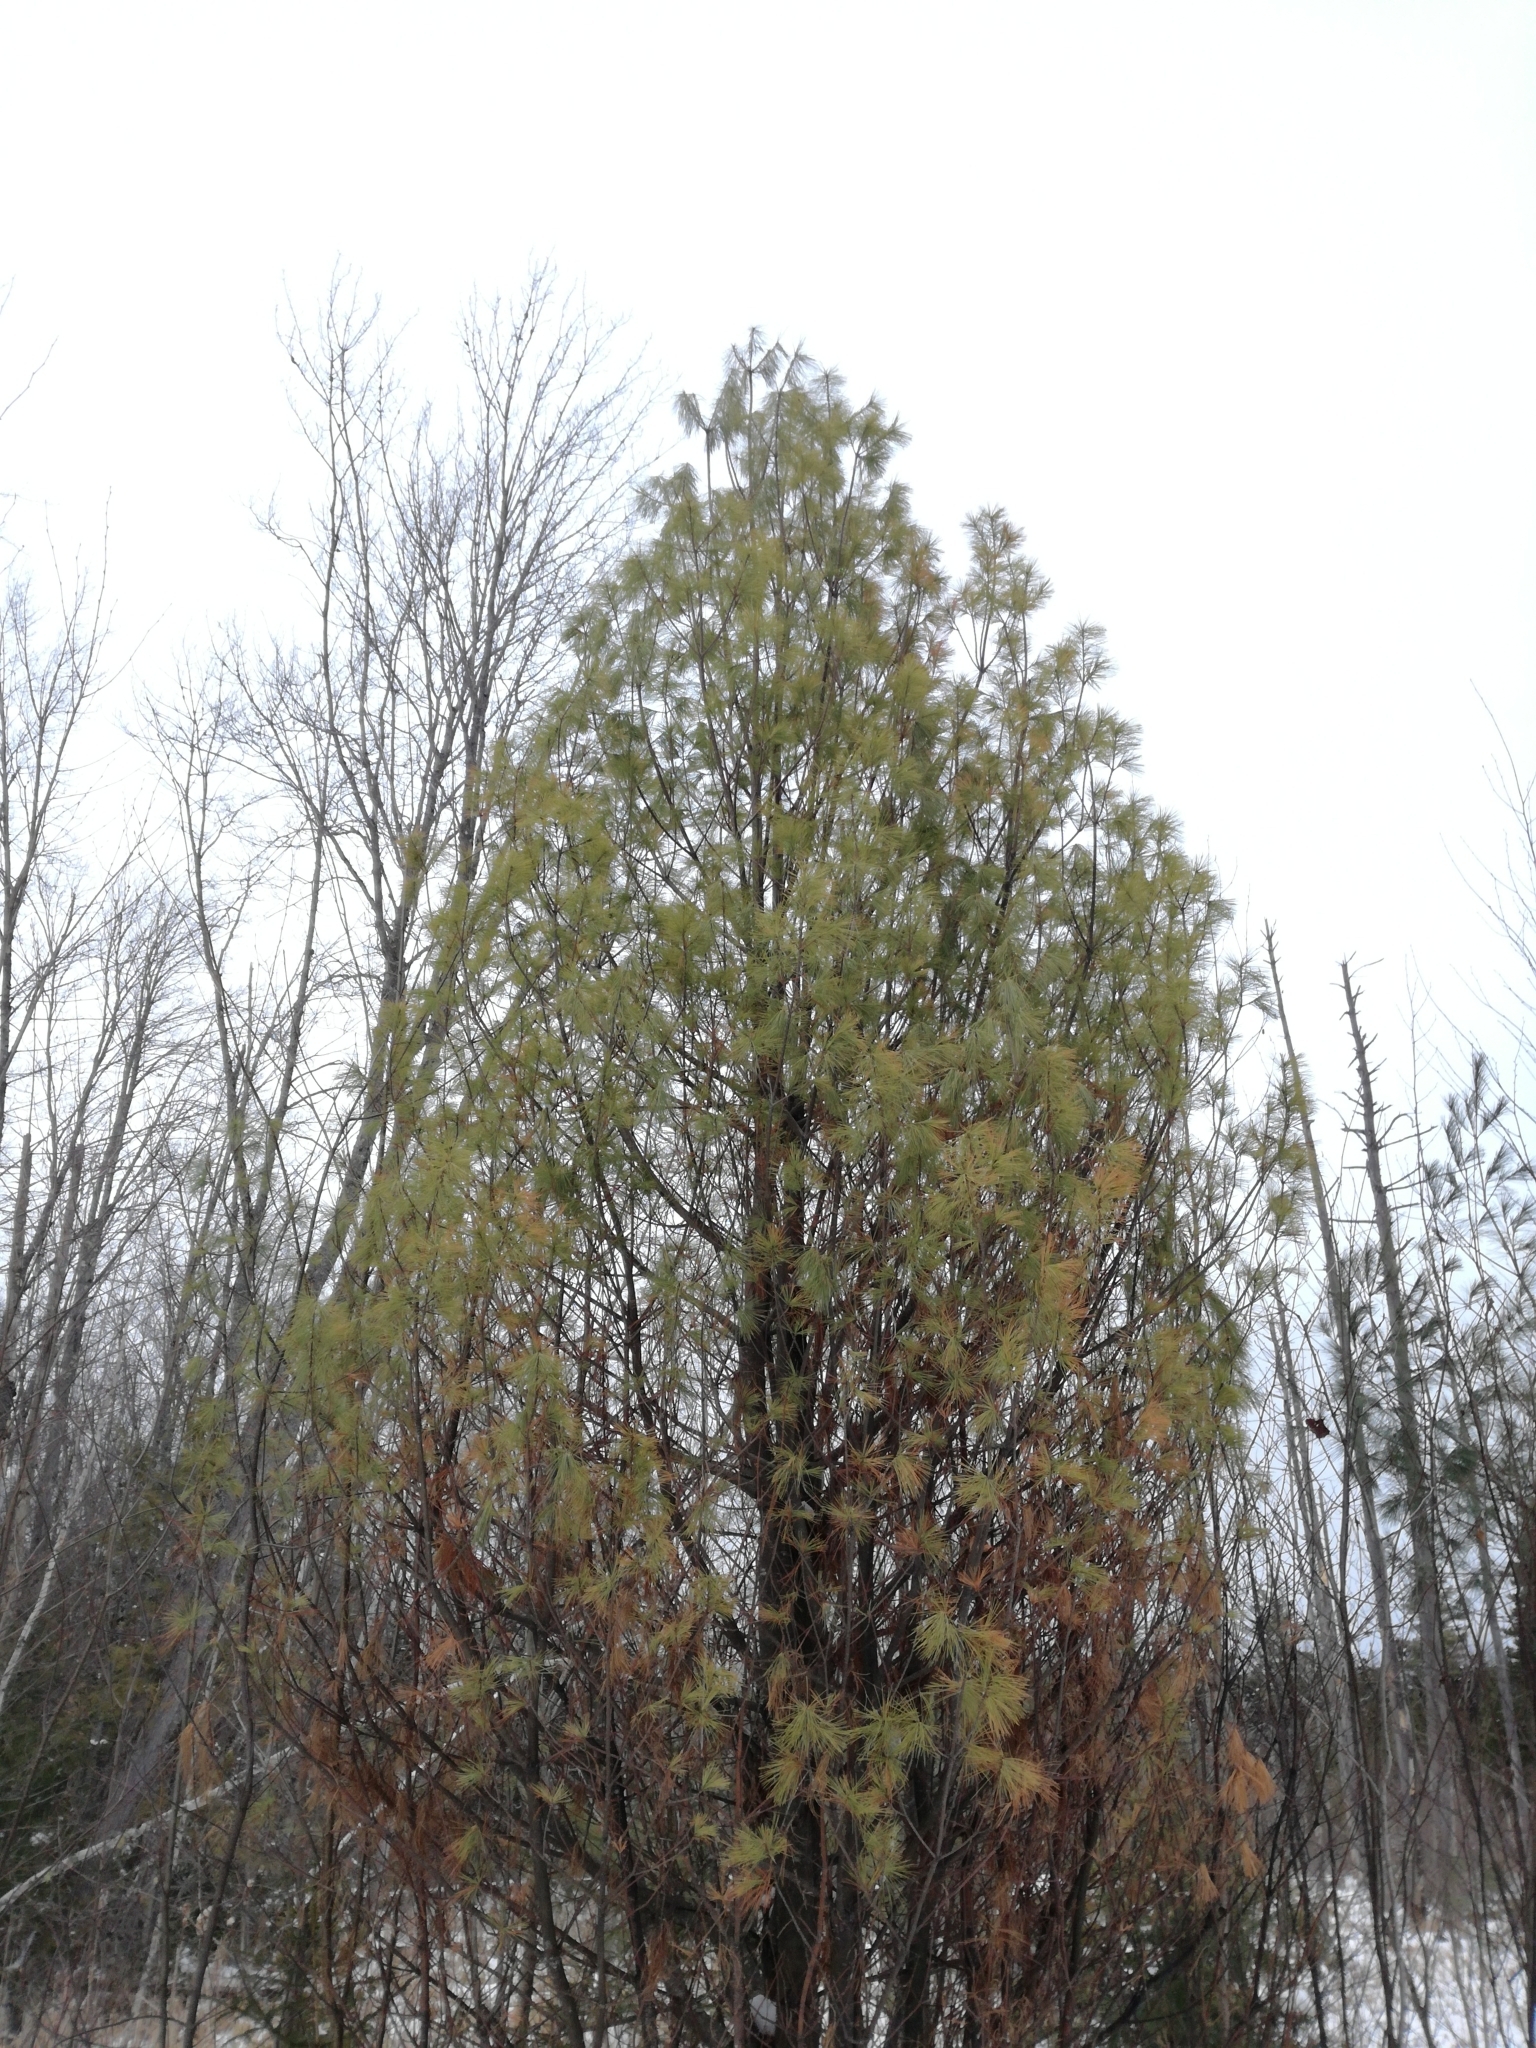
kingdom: Plantae
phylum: Tracheophyta
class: Pinopsida
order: Pinales
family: Pinaceae
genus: Pinus
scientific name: Pinus strobus
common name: Weymouth pine
